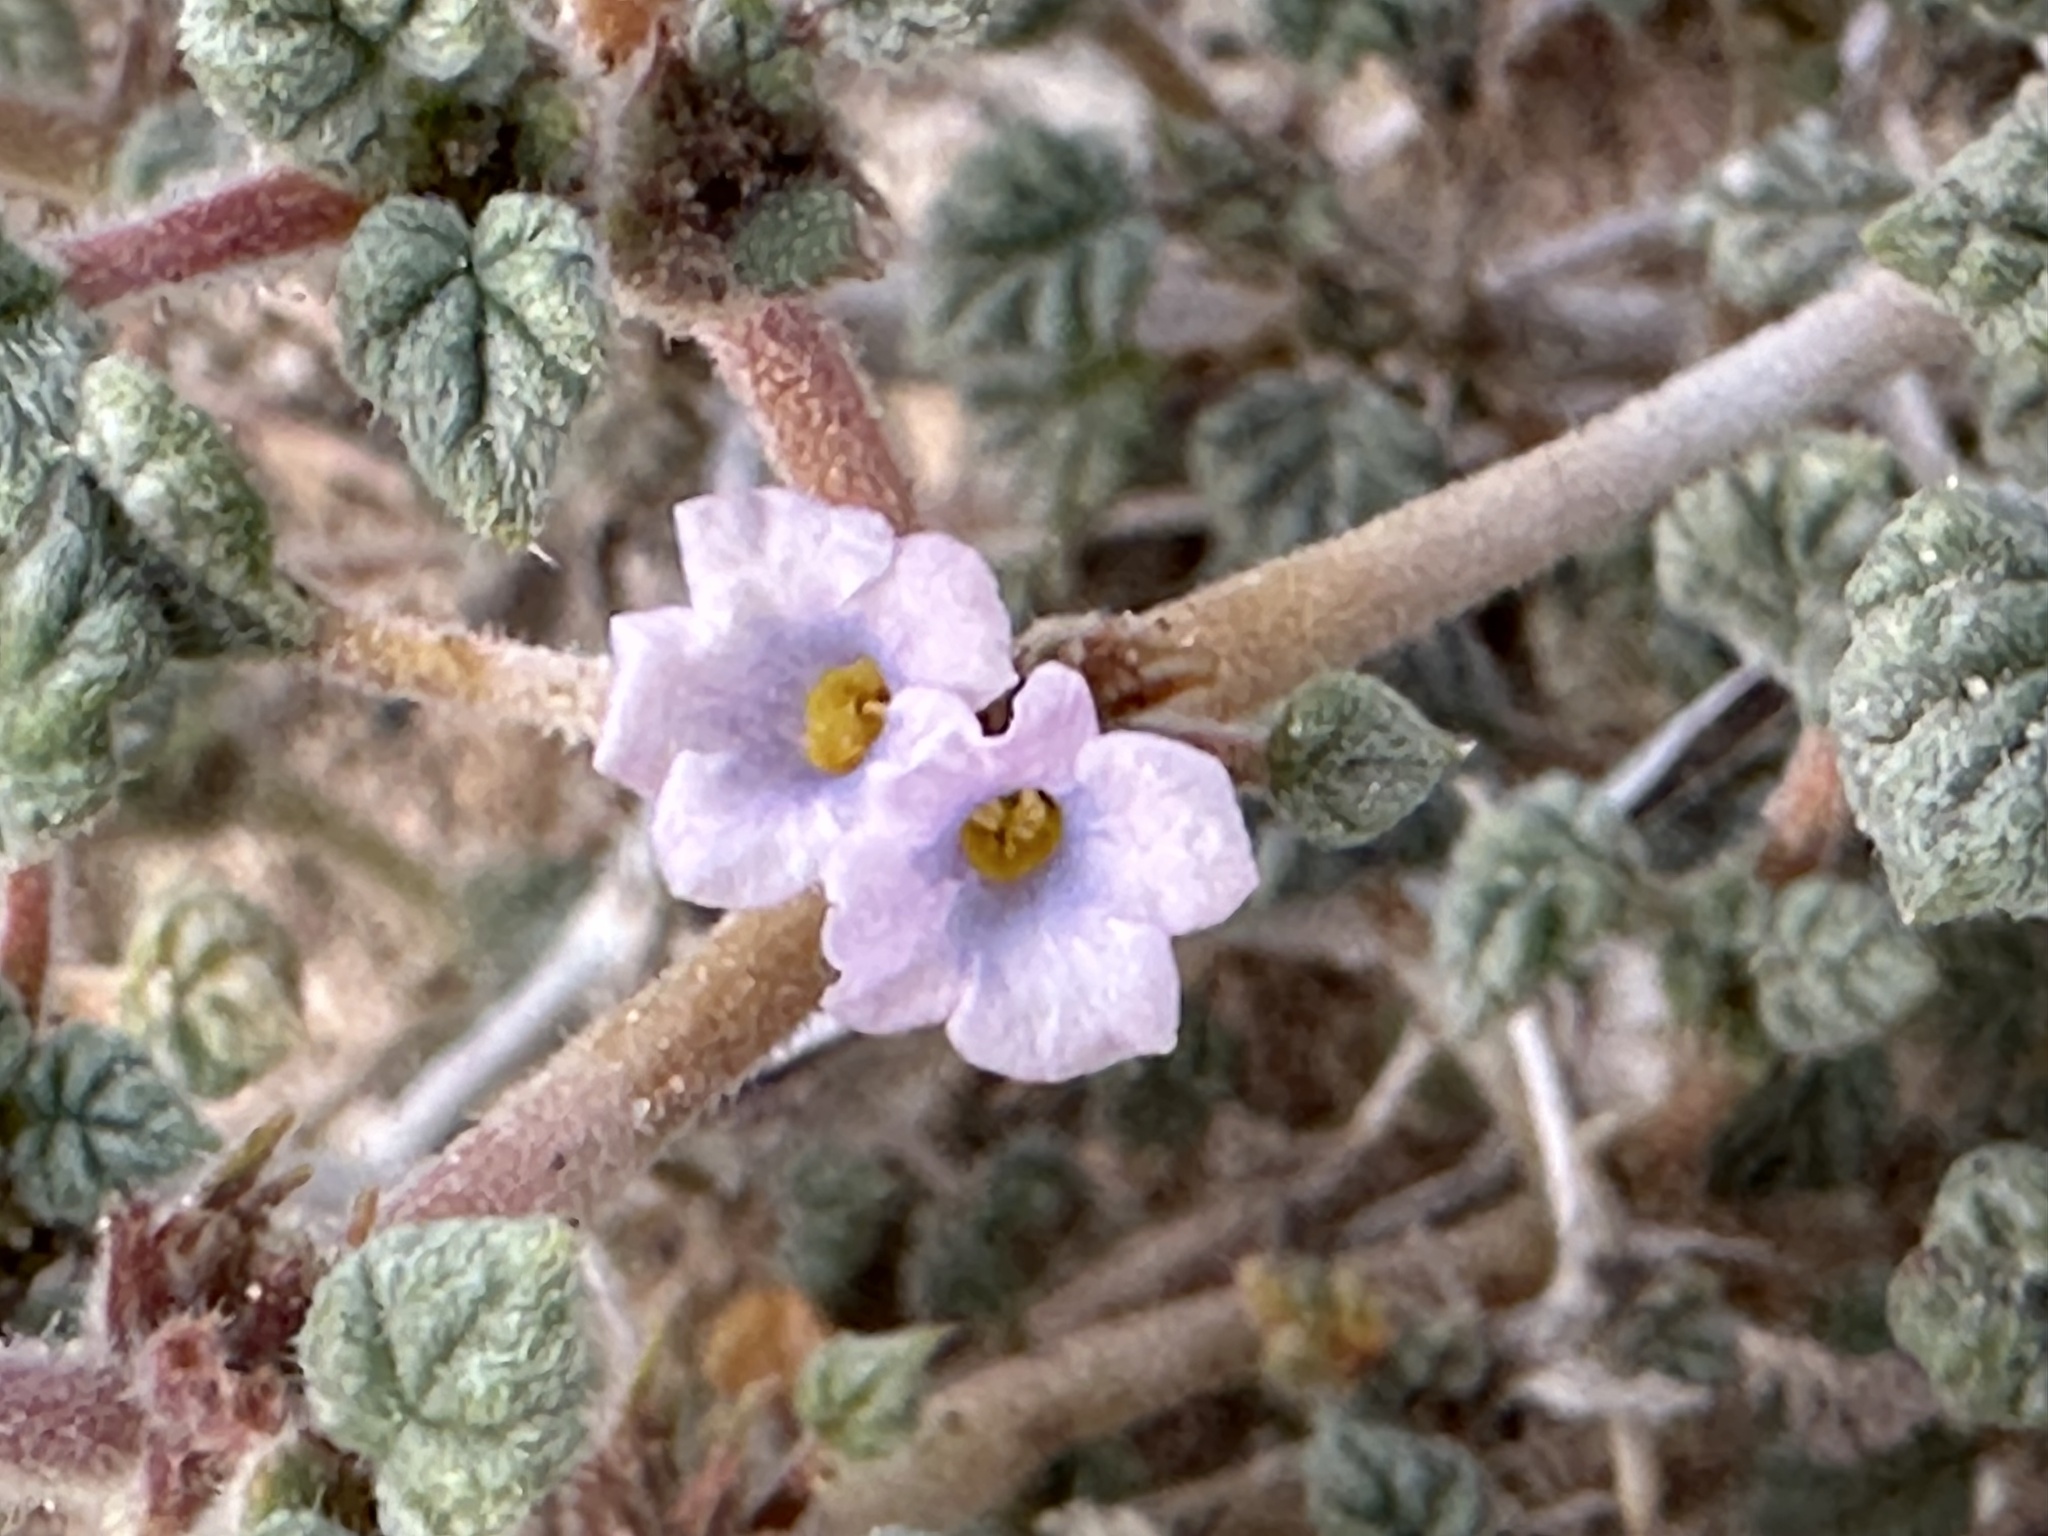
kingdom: Plantae
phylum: Tracheophyta
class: Magnoliopsida
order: Boraginales
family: Ehretiaceae
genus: Tiquilia
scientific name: Tiquilia palmeri
